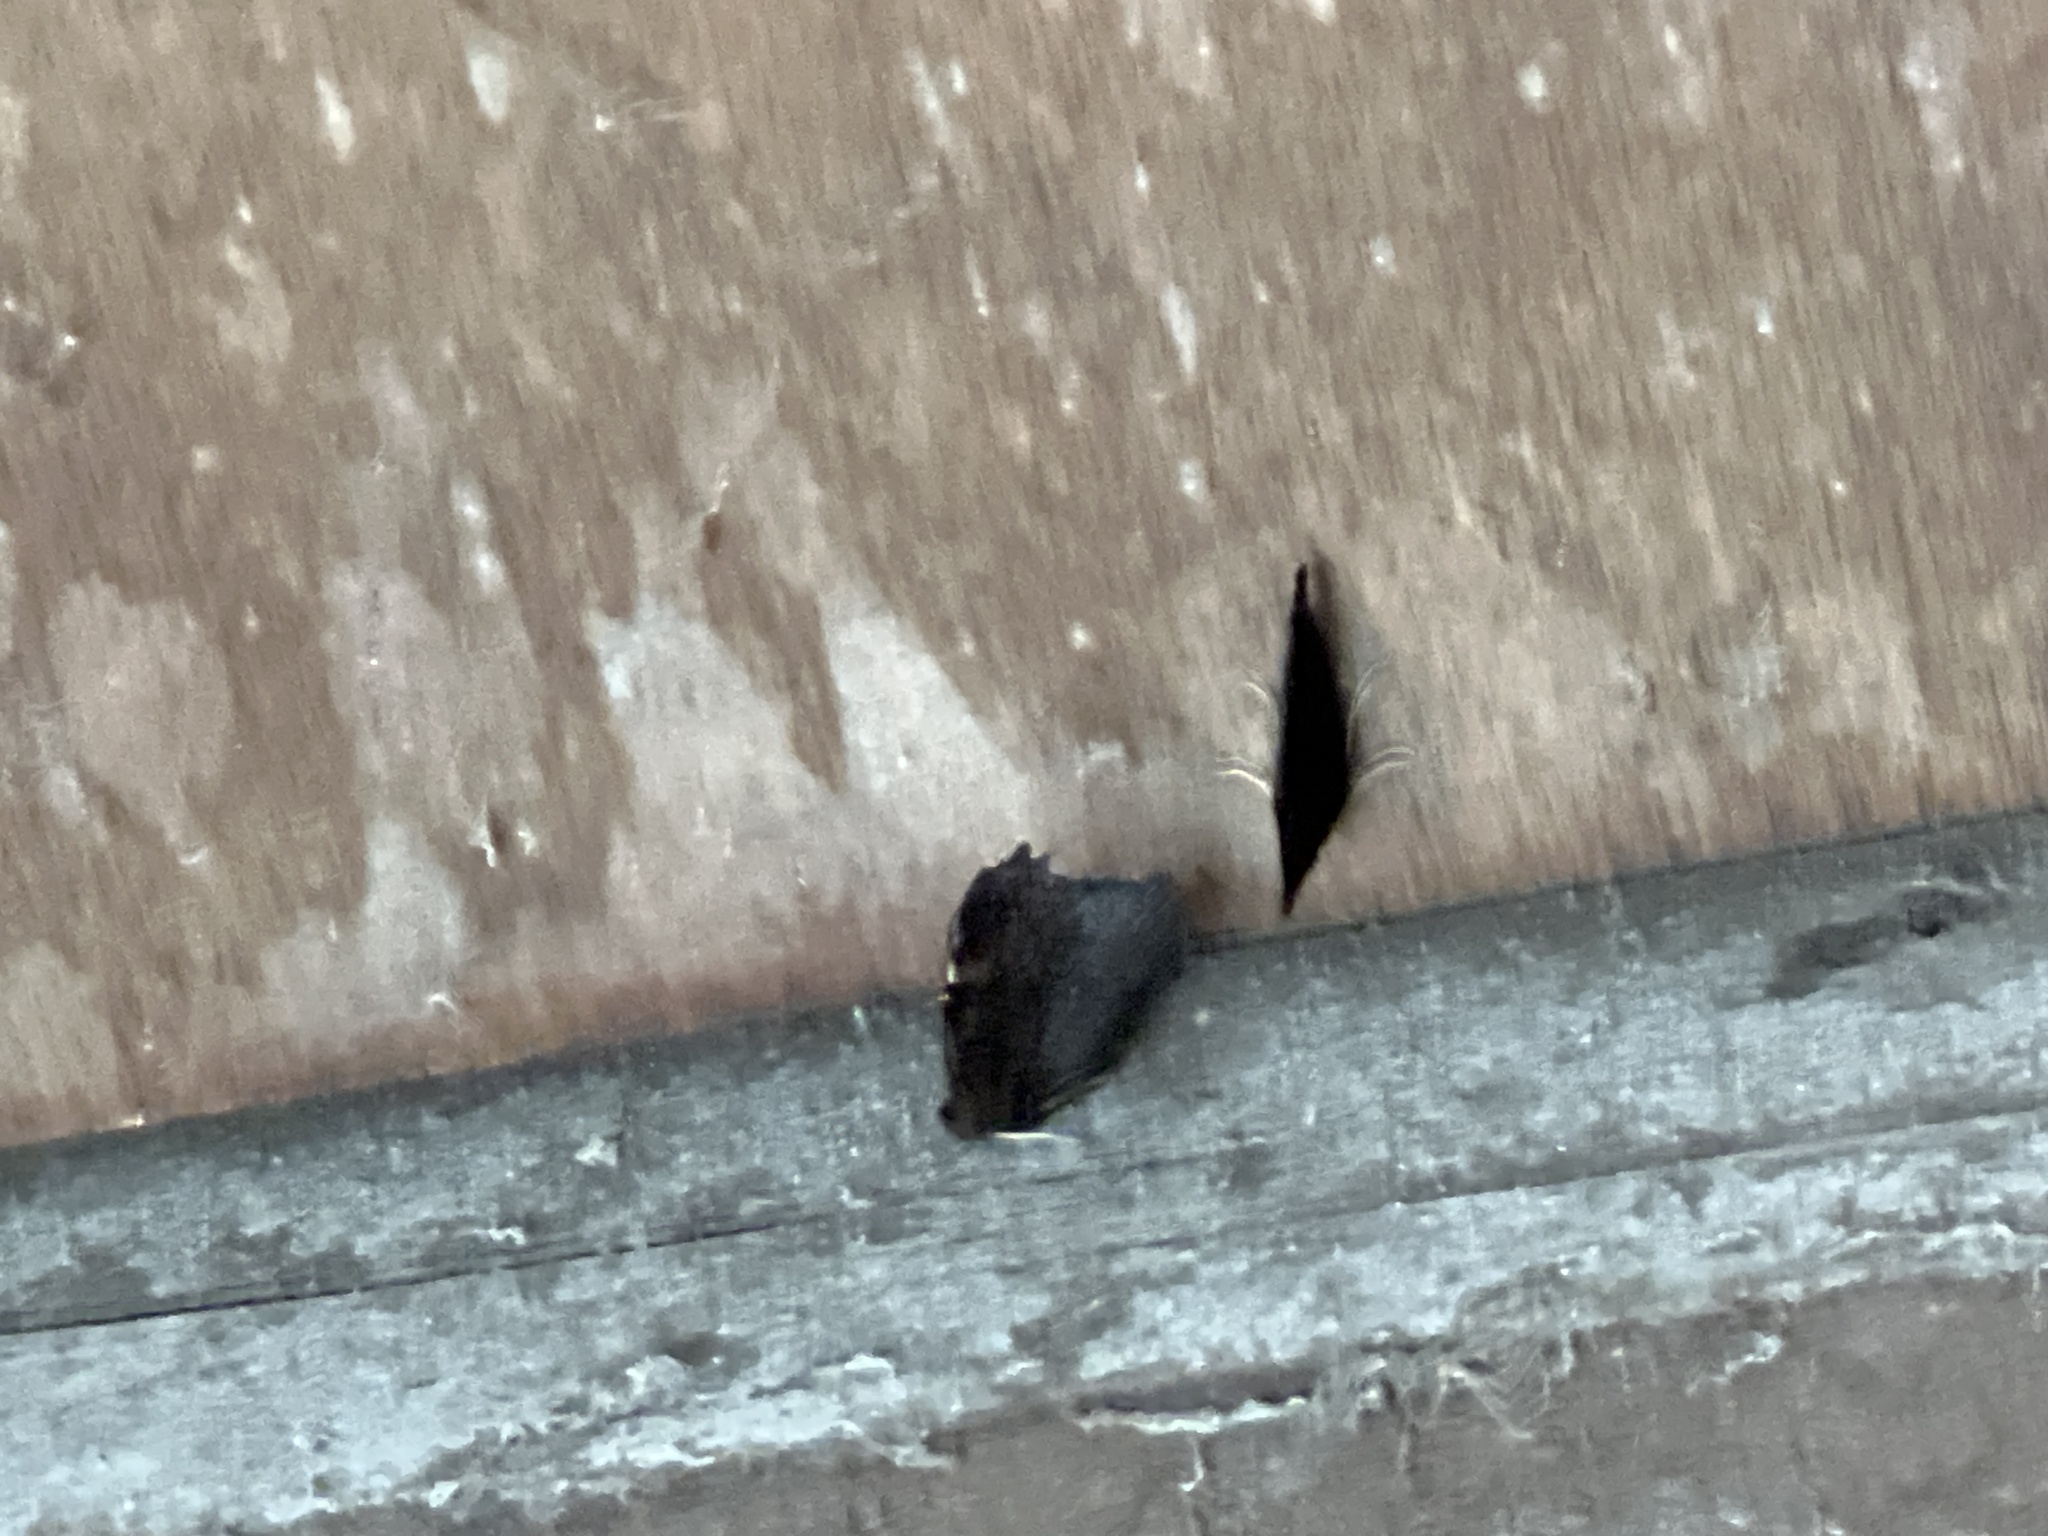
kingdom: Animalia
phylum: Arthropoda
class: Insecta
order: Lepidoptera
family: Nymphalidae
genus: Aglais
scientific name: Aglais io
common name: Peacock
